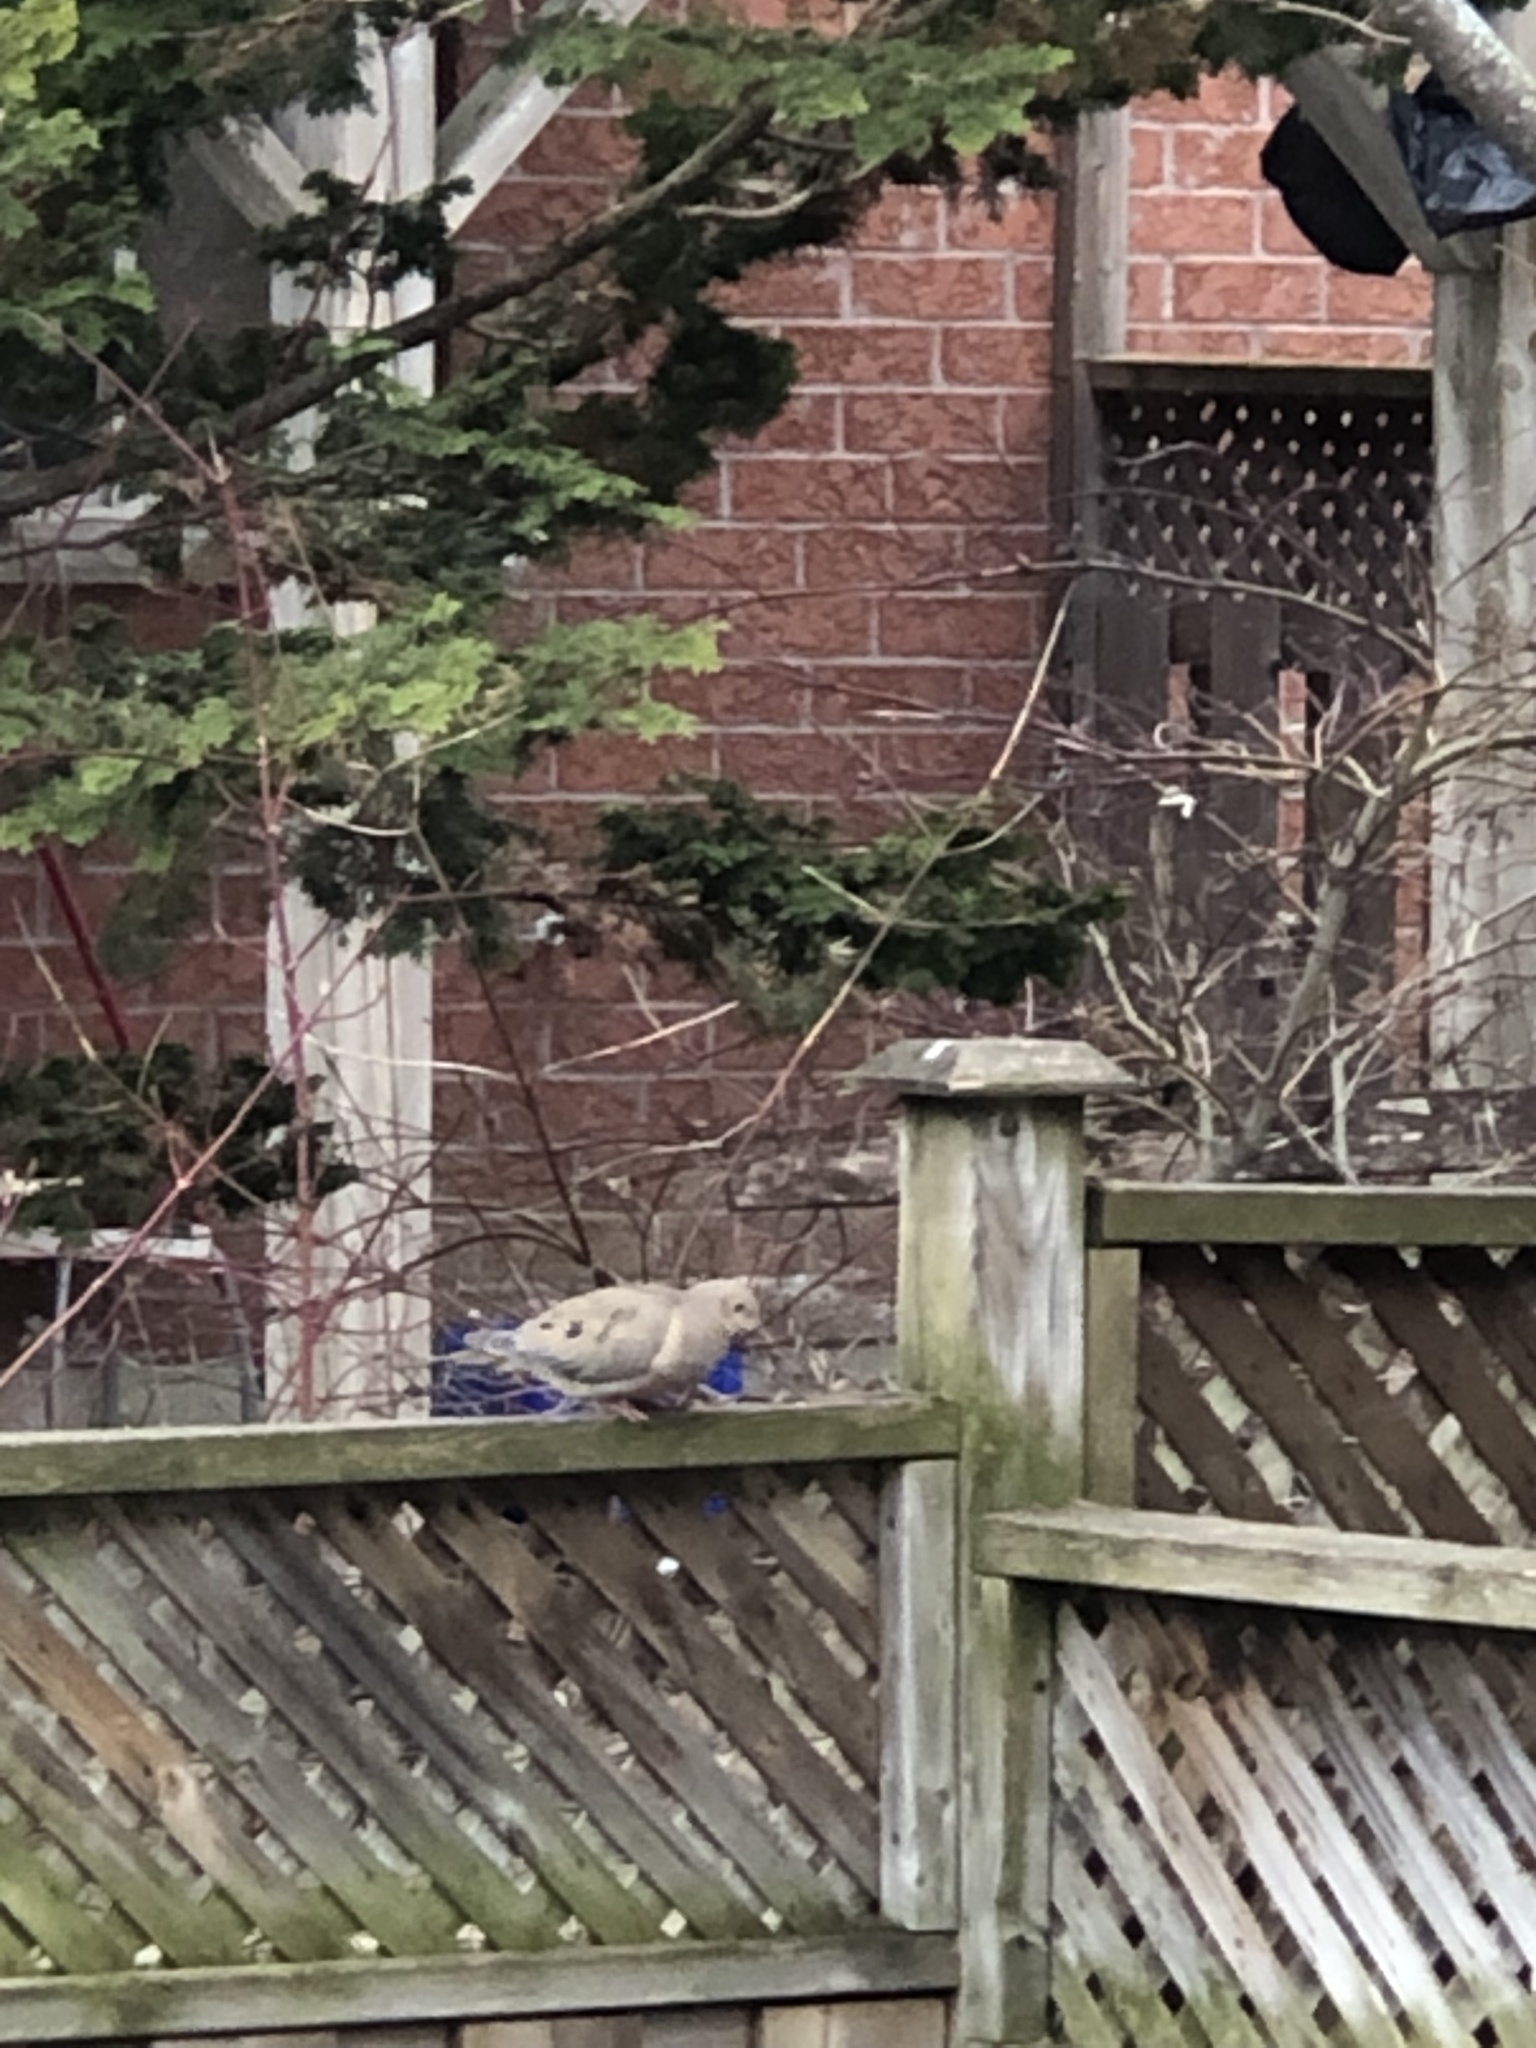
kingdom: Animalia
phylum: Chordata
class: Aves
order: Columbiformes
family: Columbidae
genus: Zenaida
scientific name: Zenaida macroura
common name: Mourning dove
